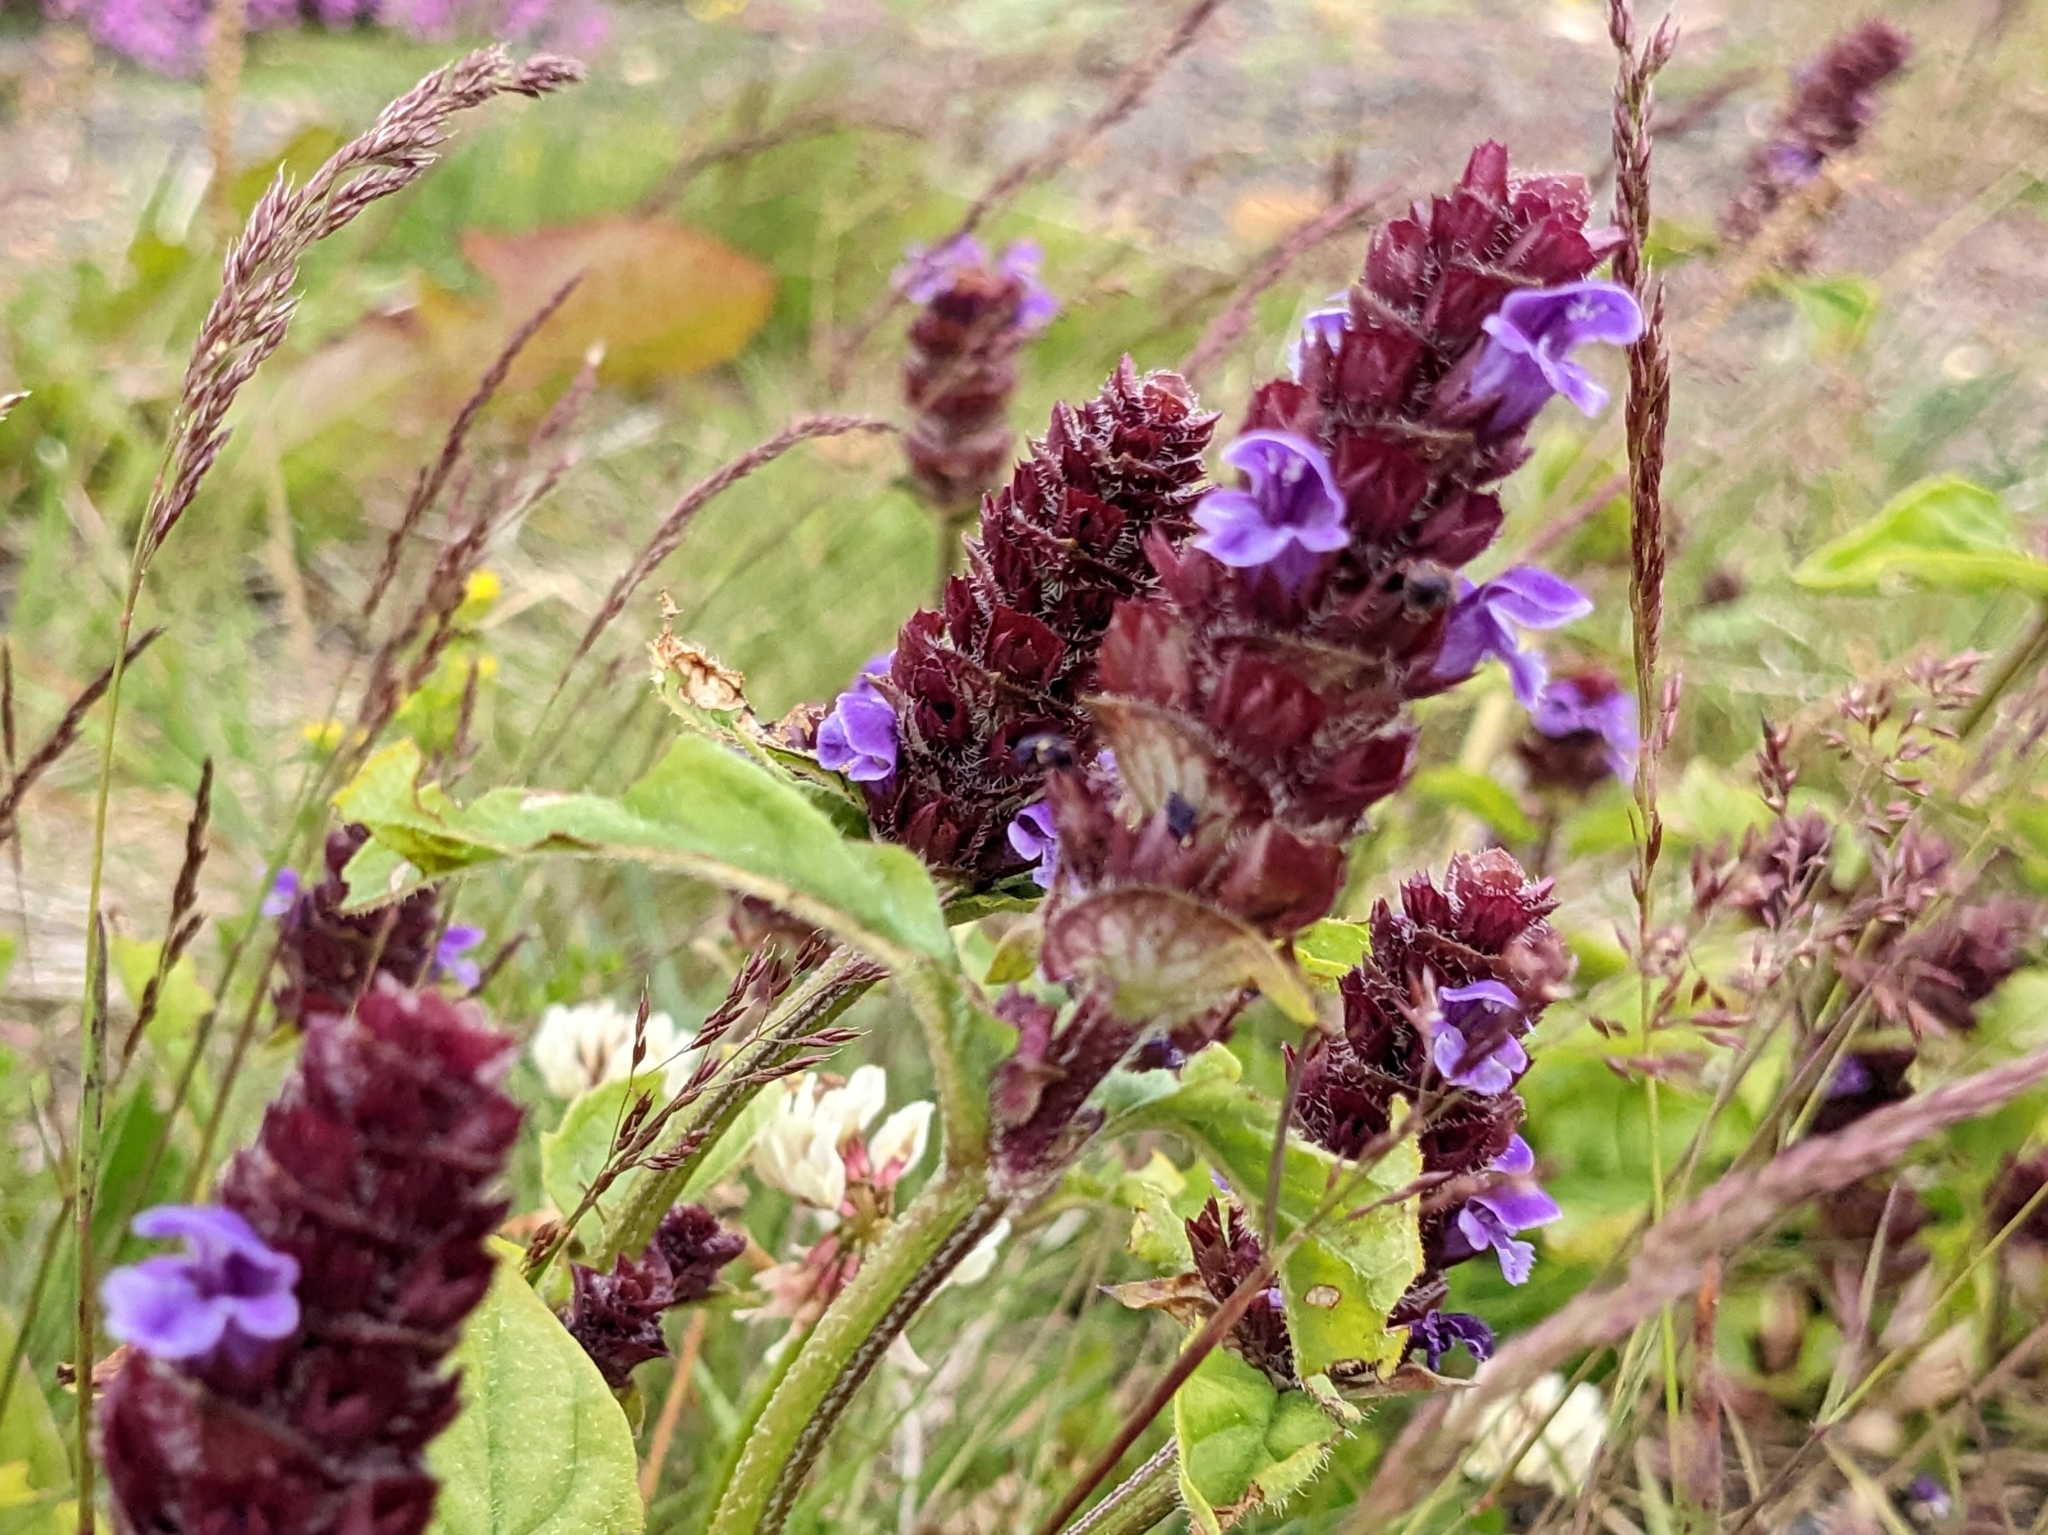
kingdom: Plantae
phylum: Tracheophyta
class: Magnoliopsida
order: Lamiales
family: Lamiaceae
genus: Prunella
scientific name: Prunella vulgaris
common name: Heal-all
